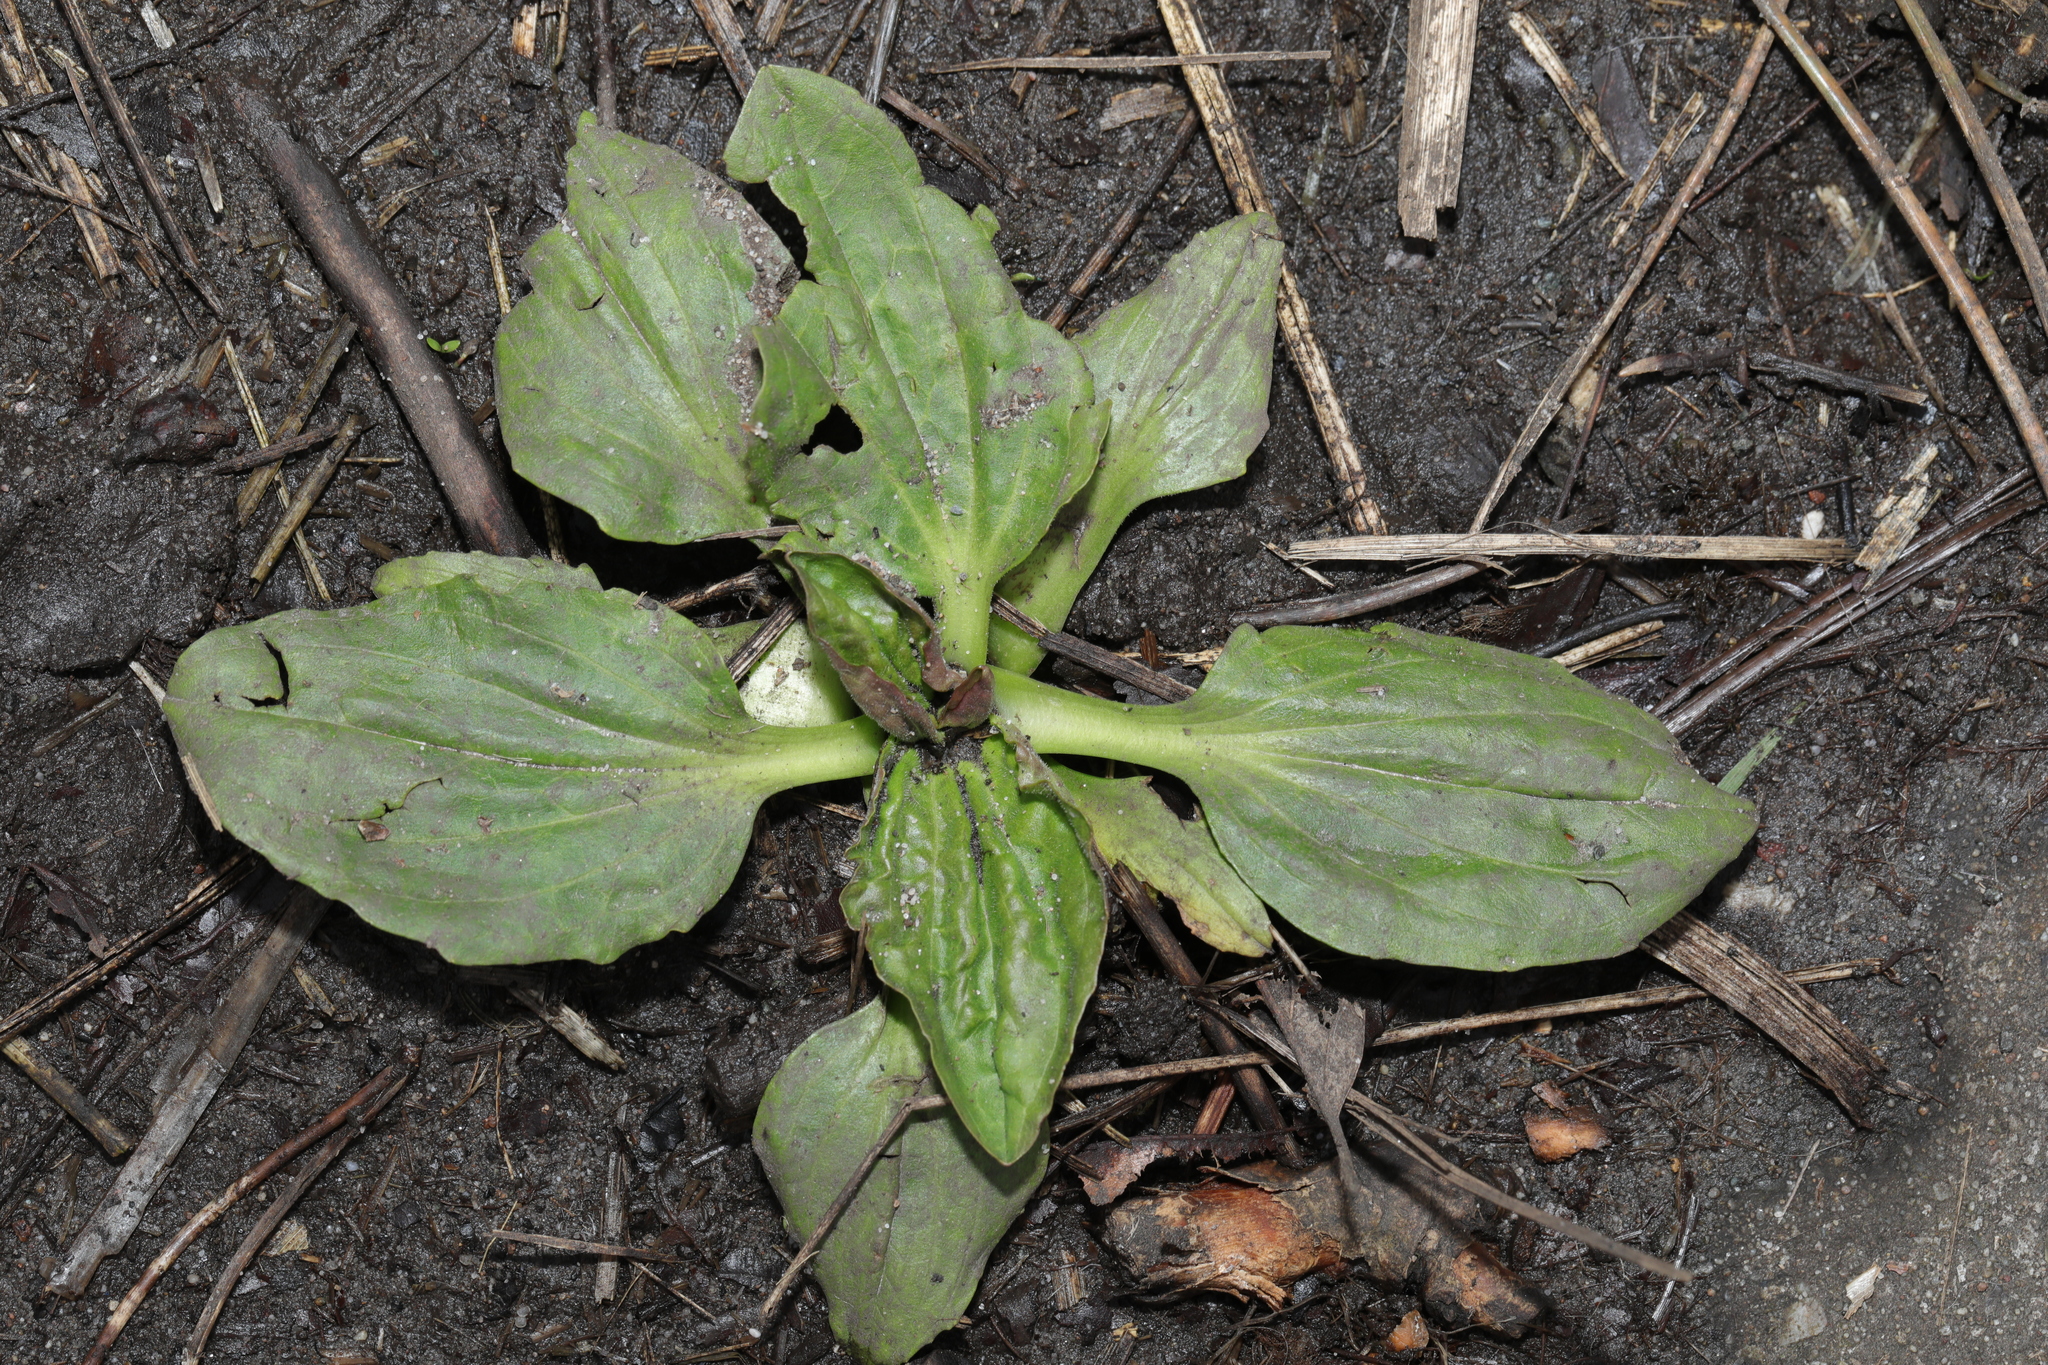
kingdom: Plantae
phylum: Tracheophyta
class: Magnoliopsida
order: Lamiales
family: Plantaginaceae
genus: Plantago
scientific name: Plantago major
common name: Common plantain
